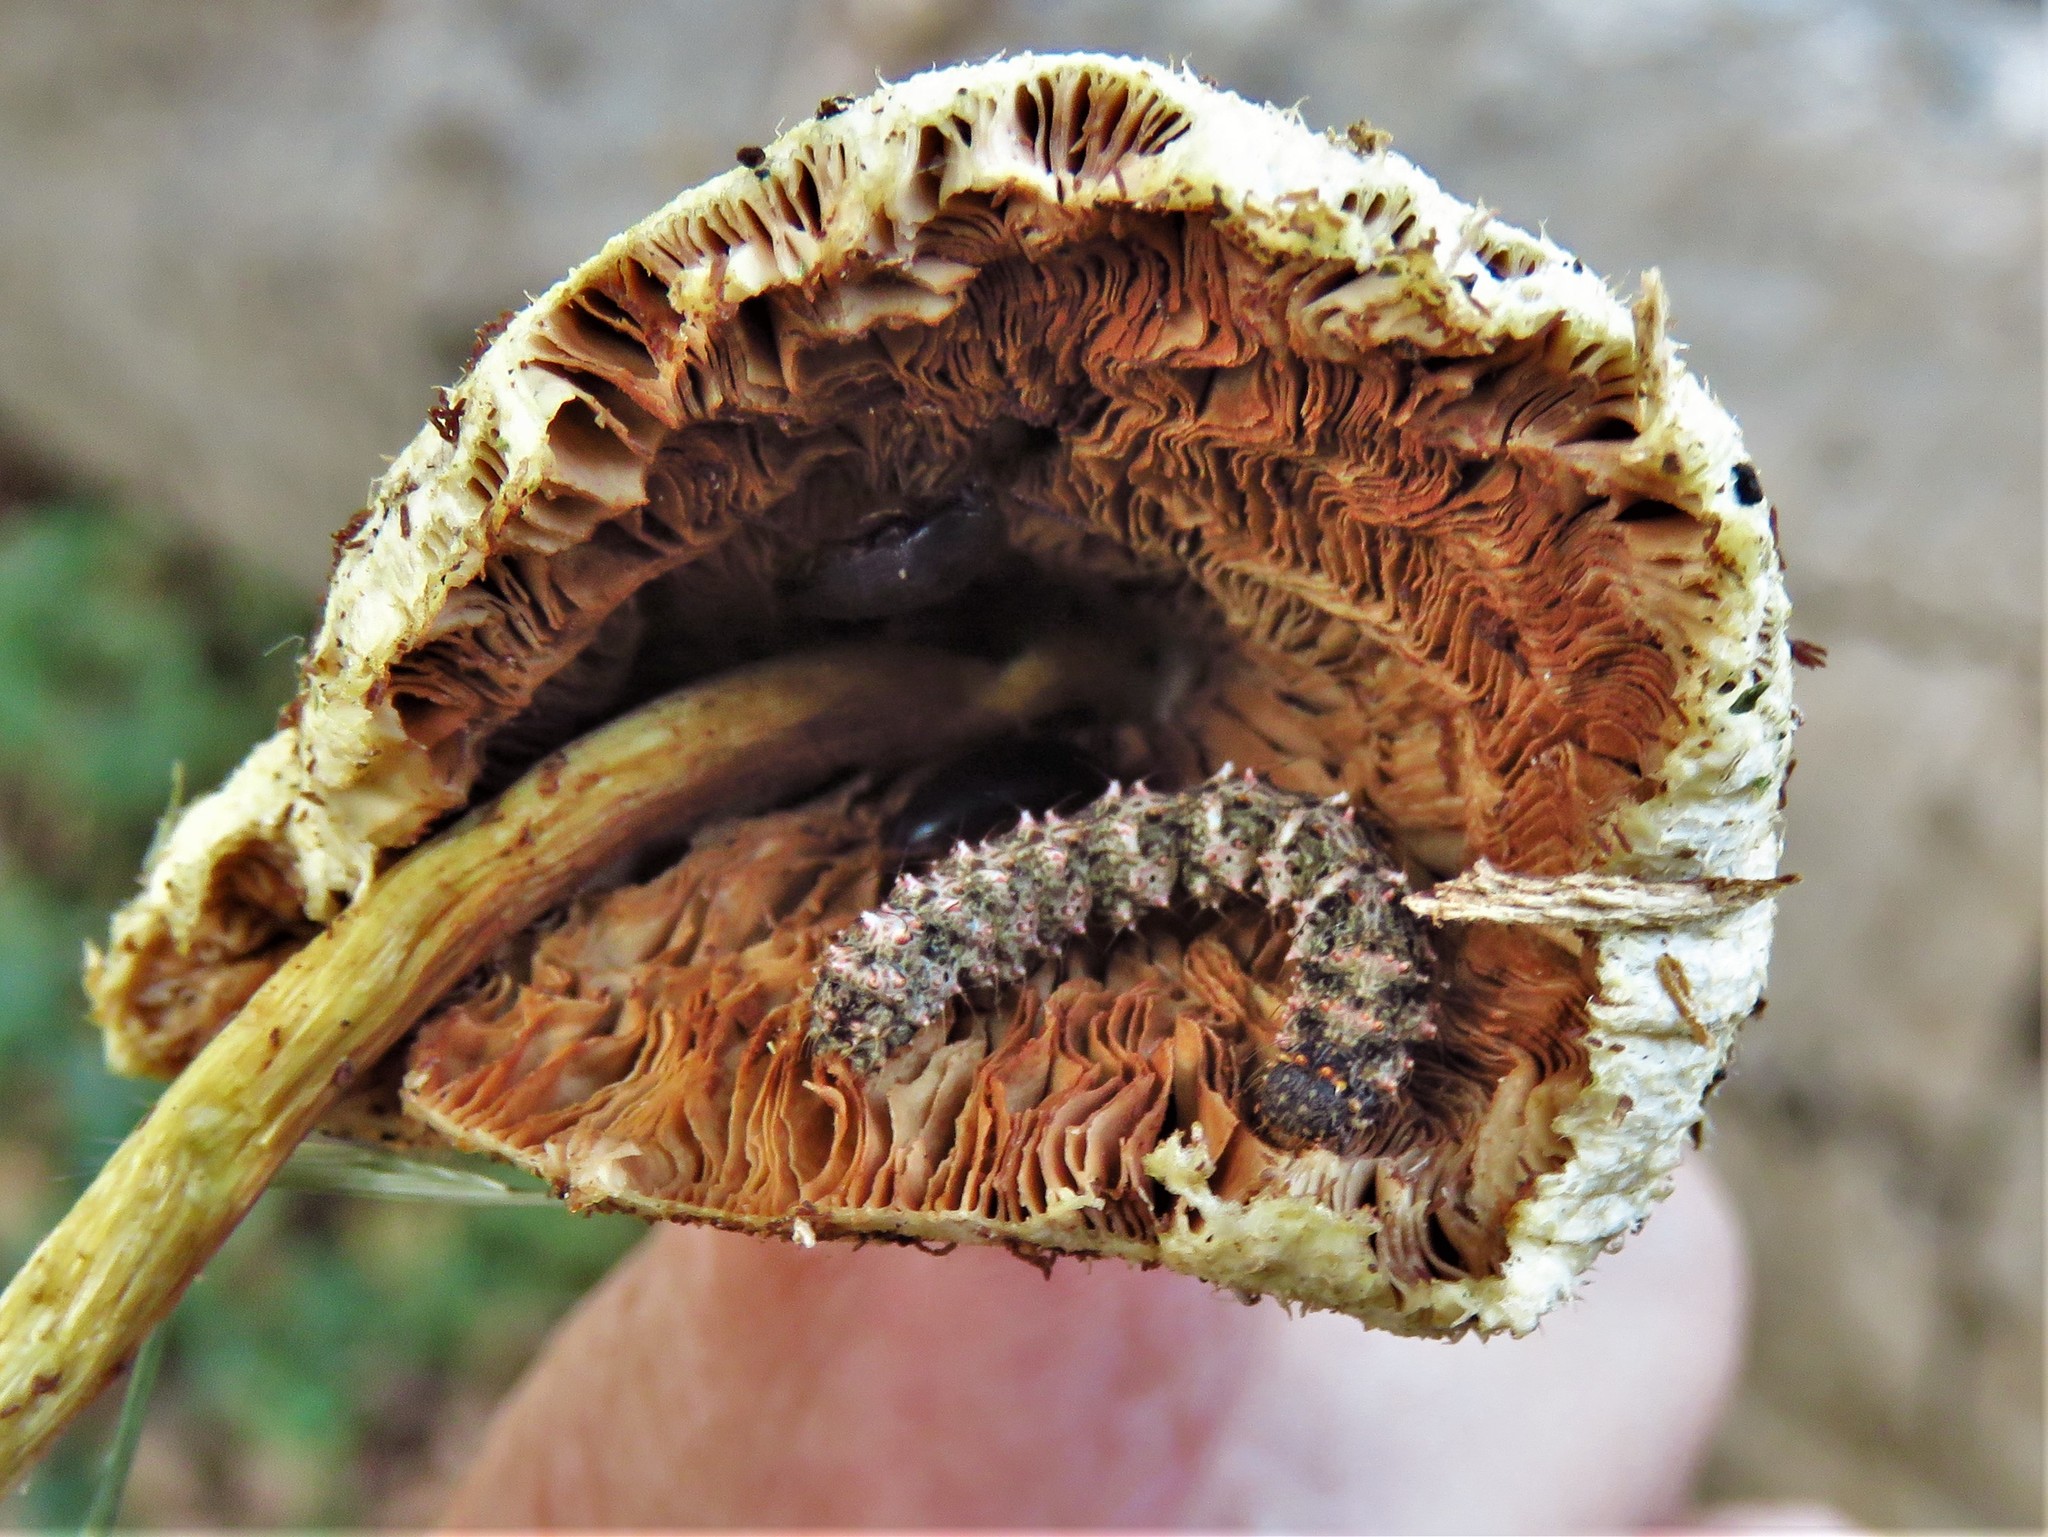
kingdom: Animalia
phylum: Arthropoda
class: Insecta
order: Lepidoptera
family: Erebidae
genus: Metalectra
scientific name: Metalectra discalis
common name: Common fungus moth
